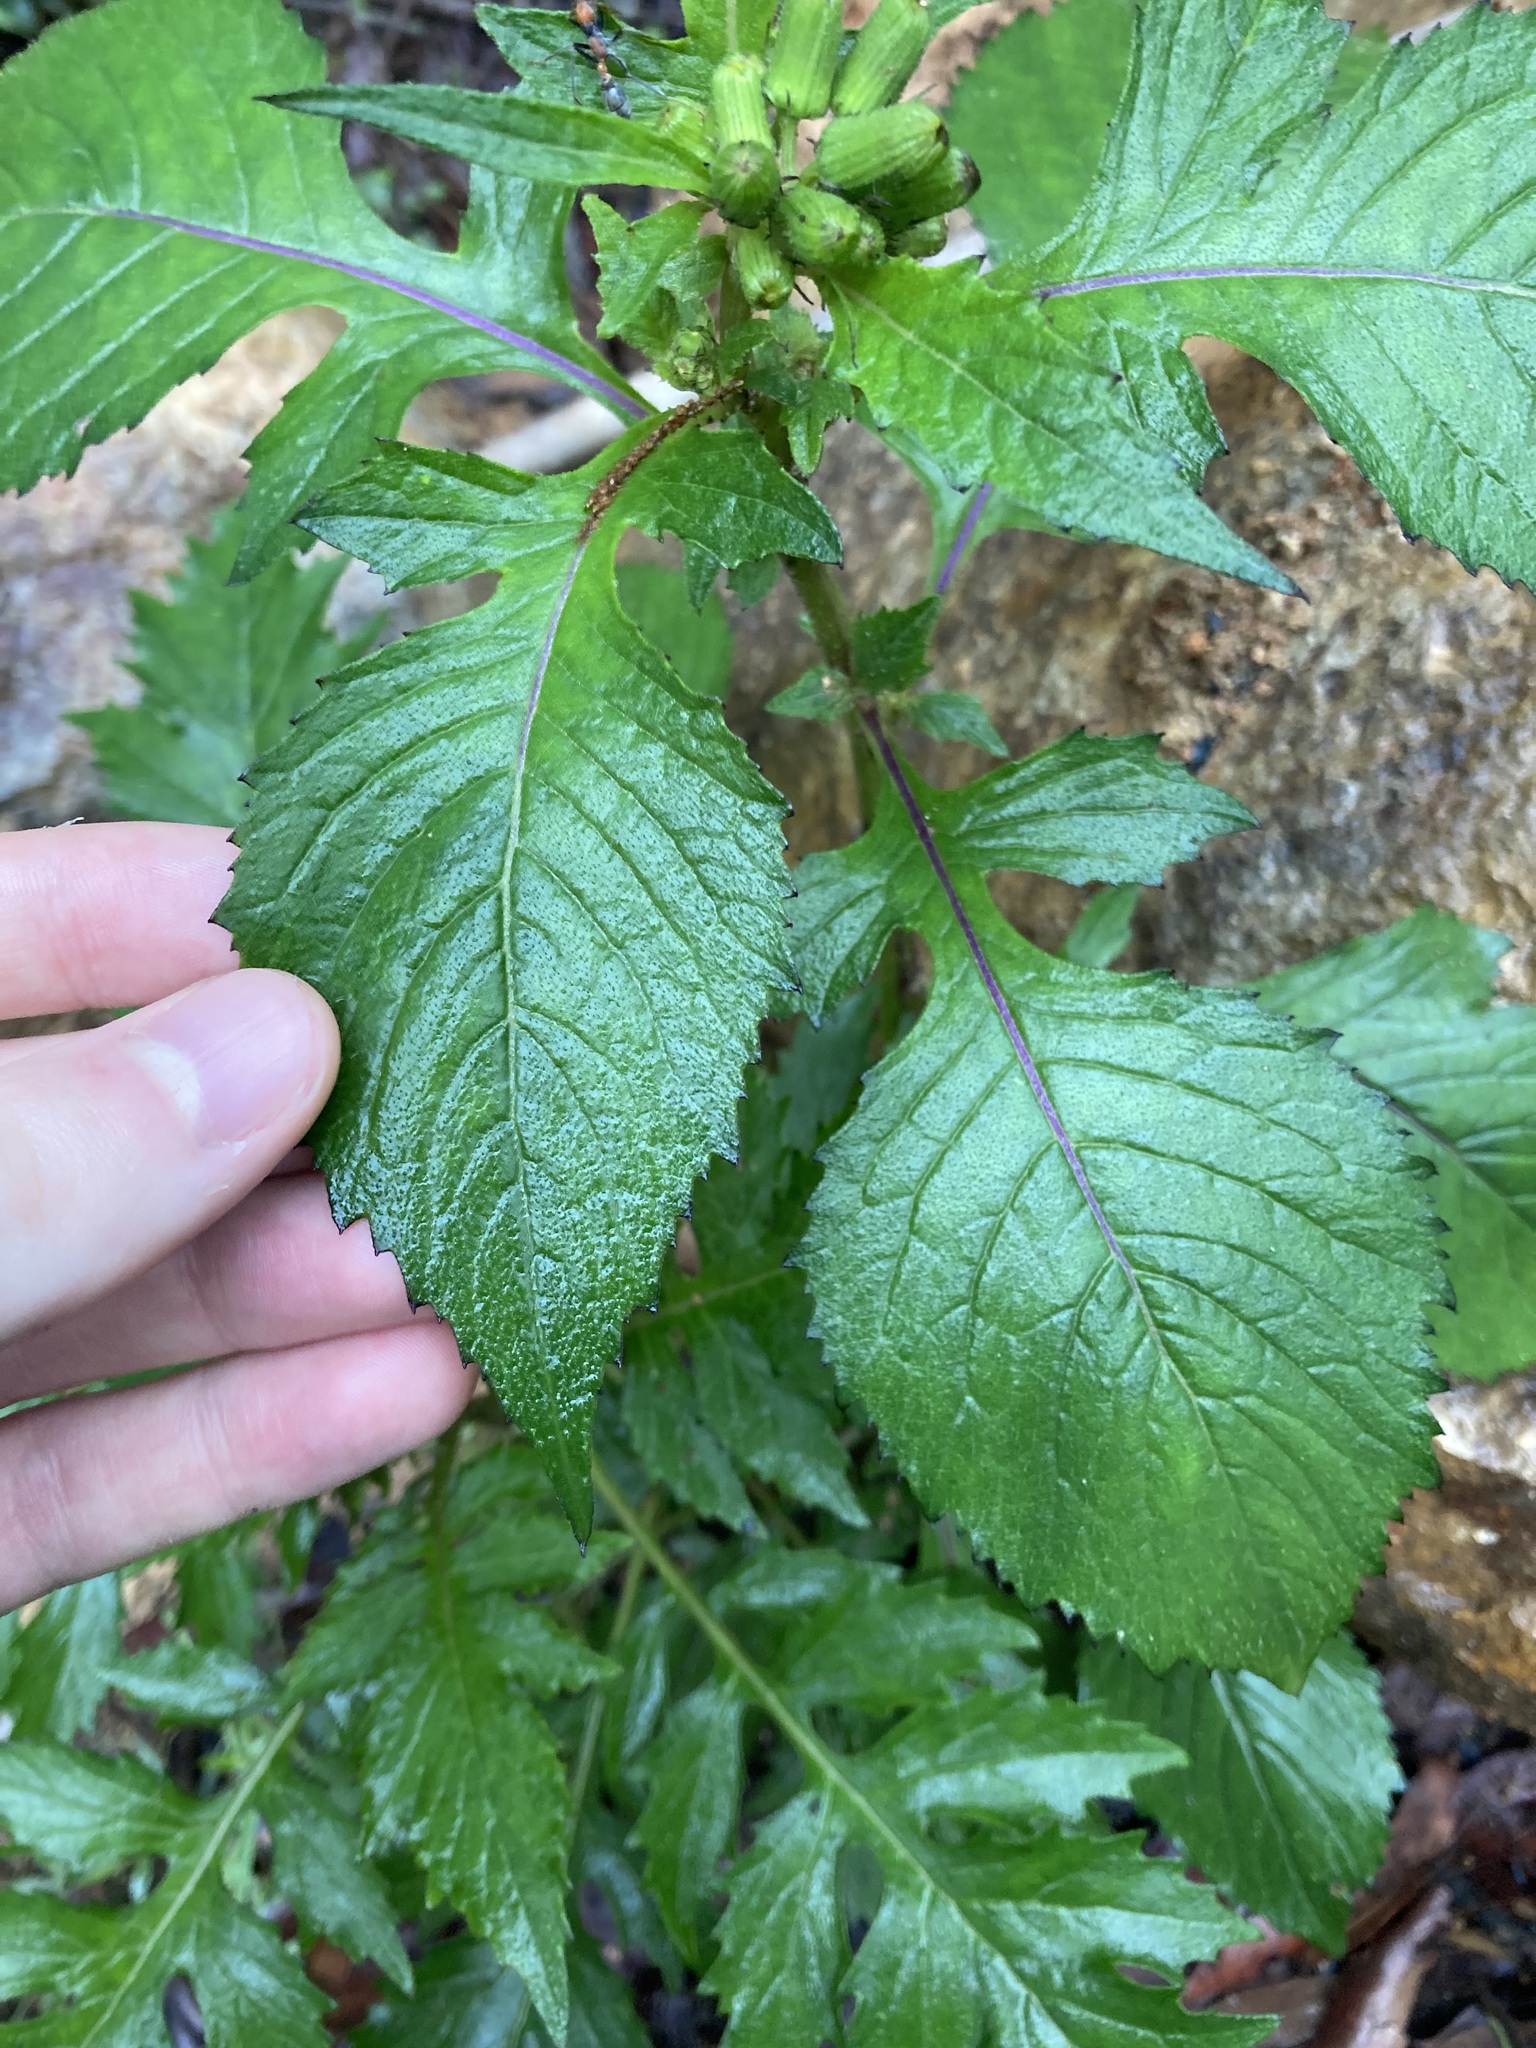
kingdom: Plantae
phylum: Tracheophyta
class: Magnoliopsida
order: Asterales
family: Asteraceae
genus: Crassocephalum
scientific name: Crassocephalum crepidioides
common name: Redflower ragleaf
